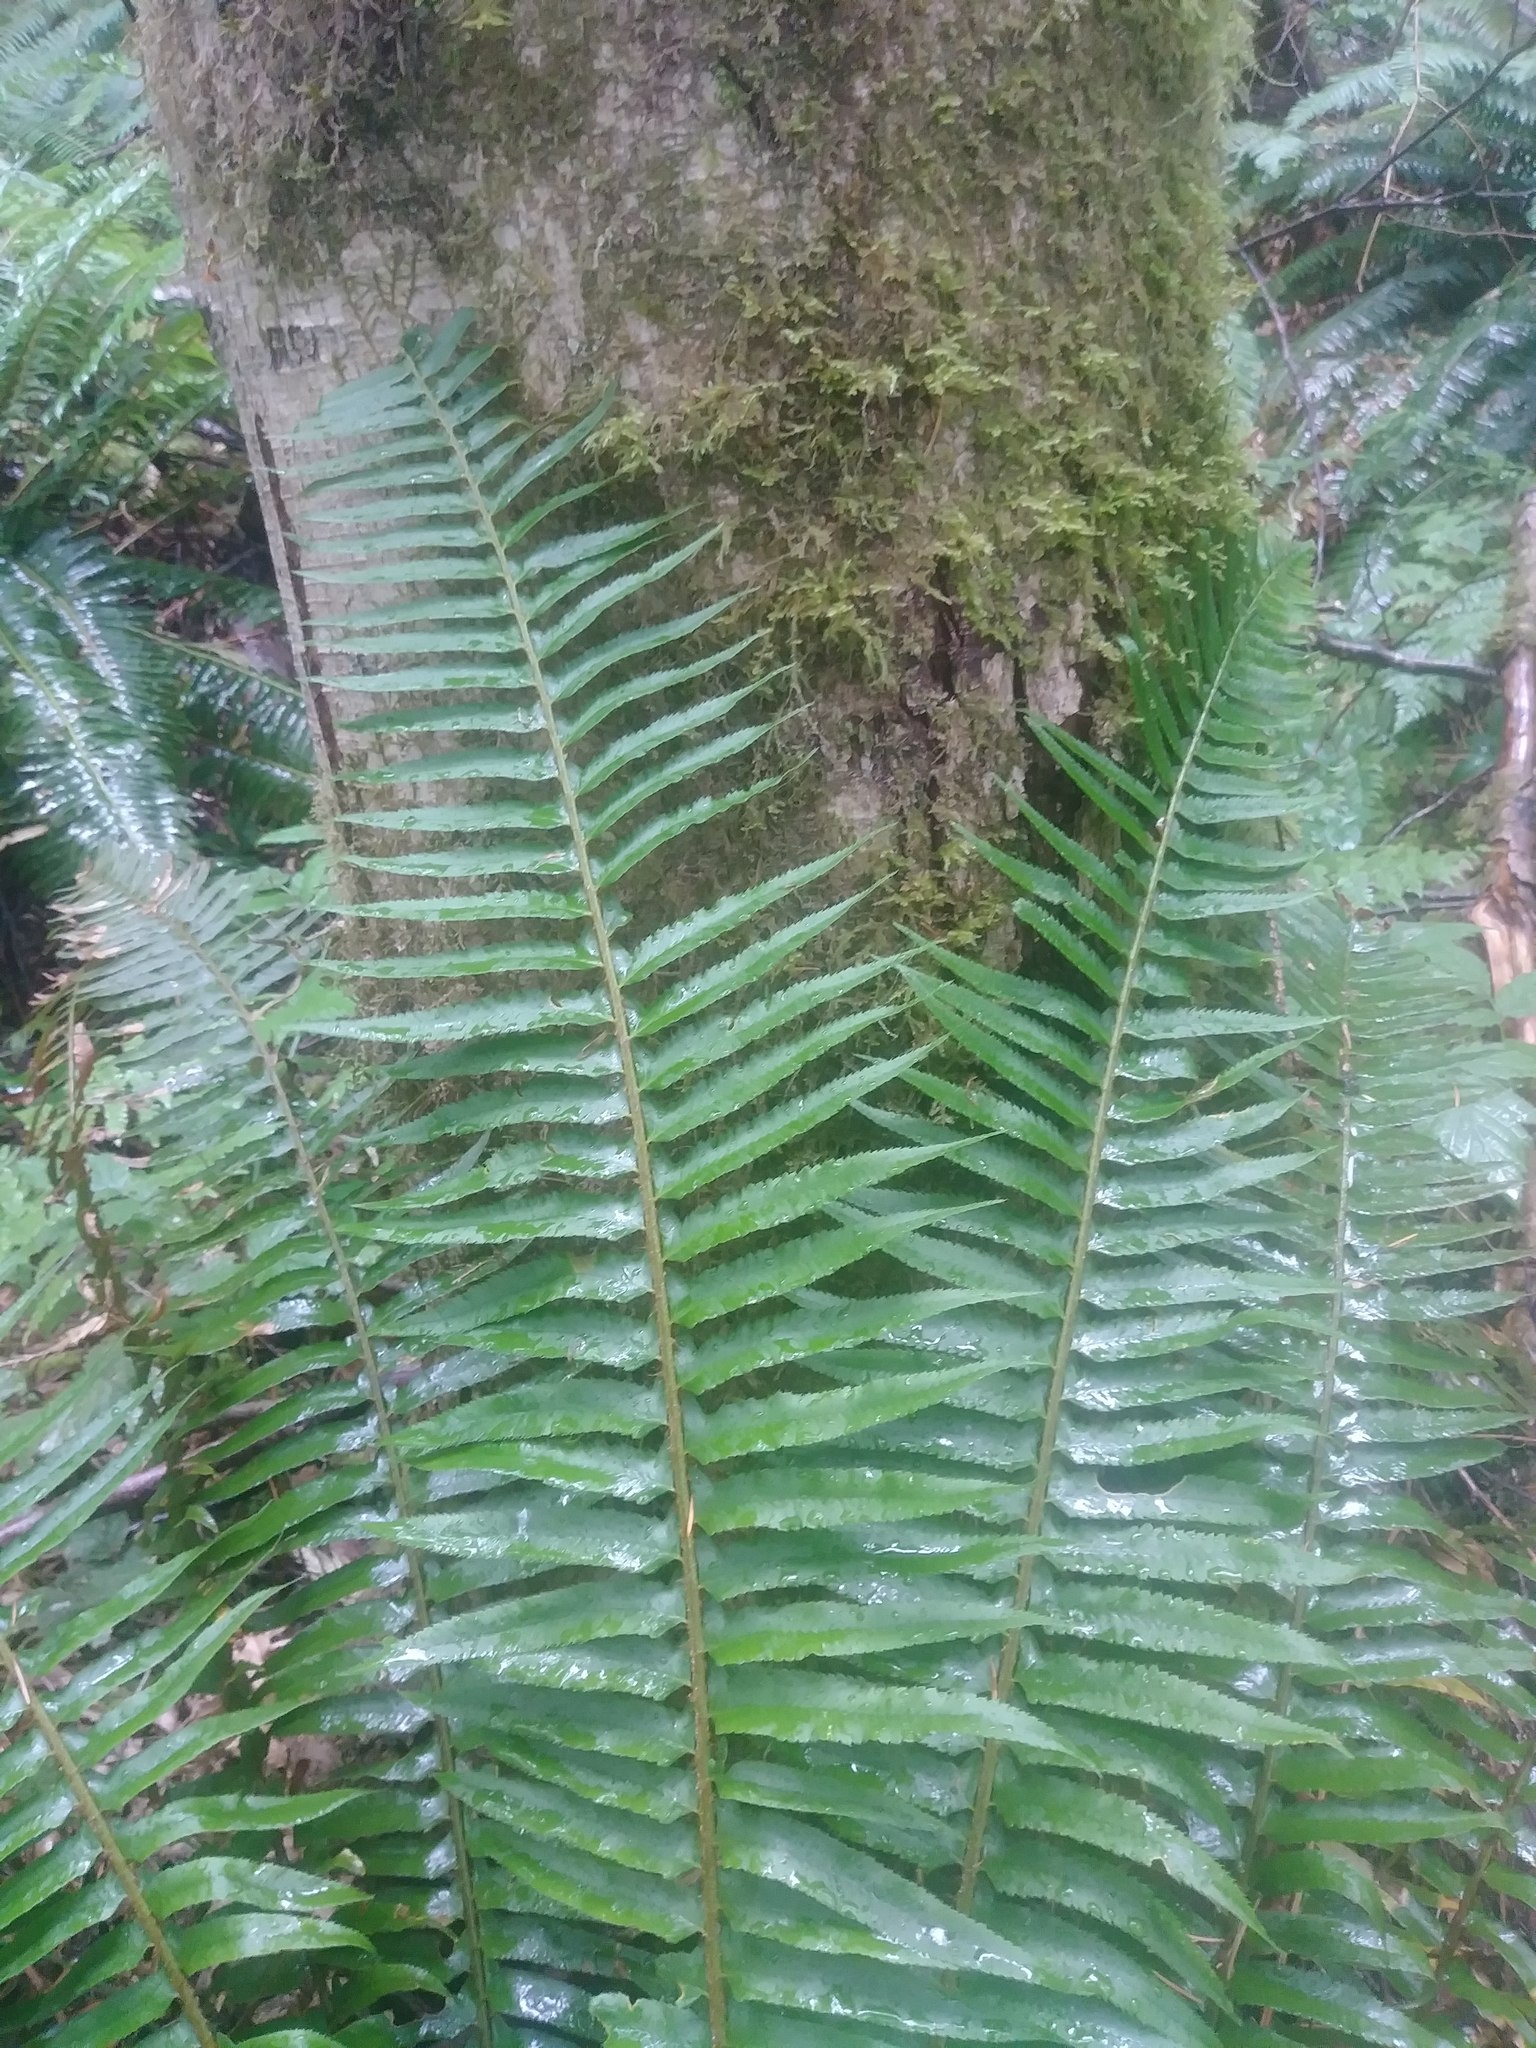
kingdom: Plantae
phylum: Tracheophyta
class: Polypodiopsida
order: Polypodiales
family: Dryopteridaceae
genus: Polystichum
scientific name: Polystichum munitum
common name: Western sword-fern
